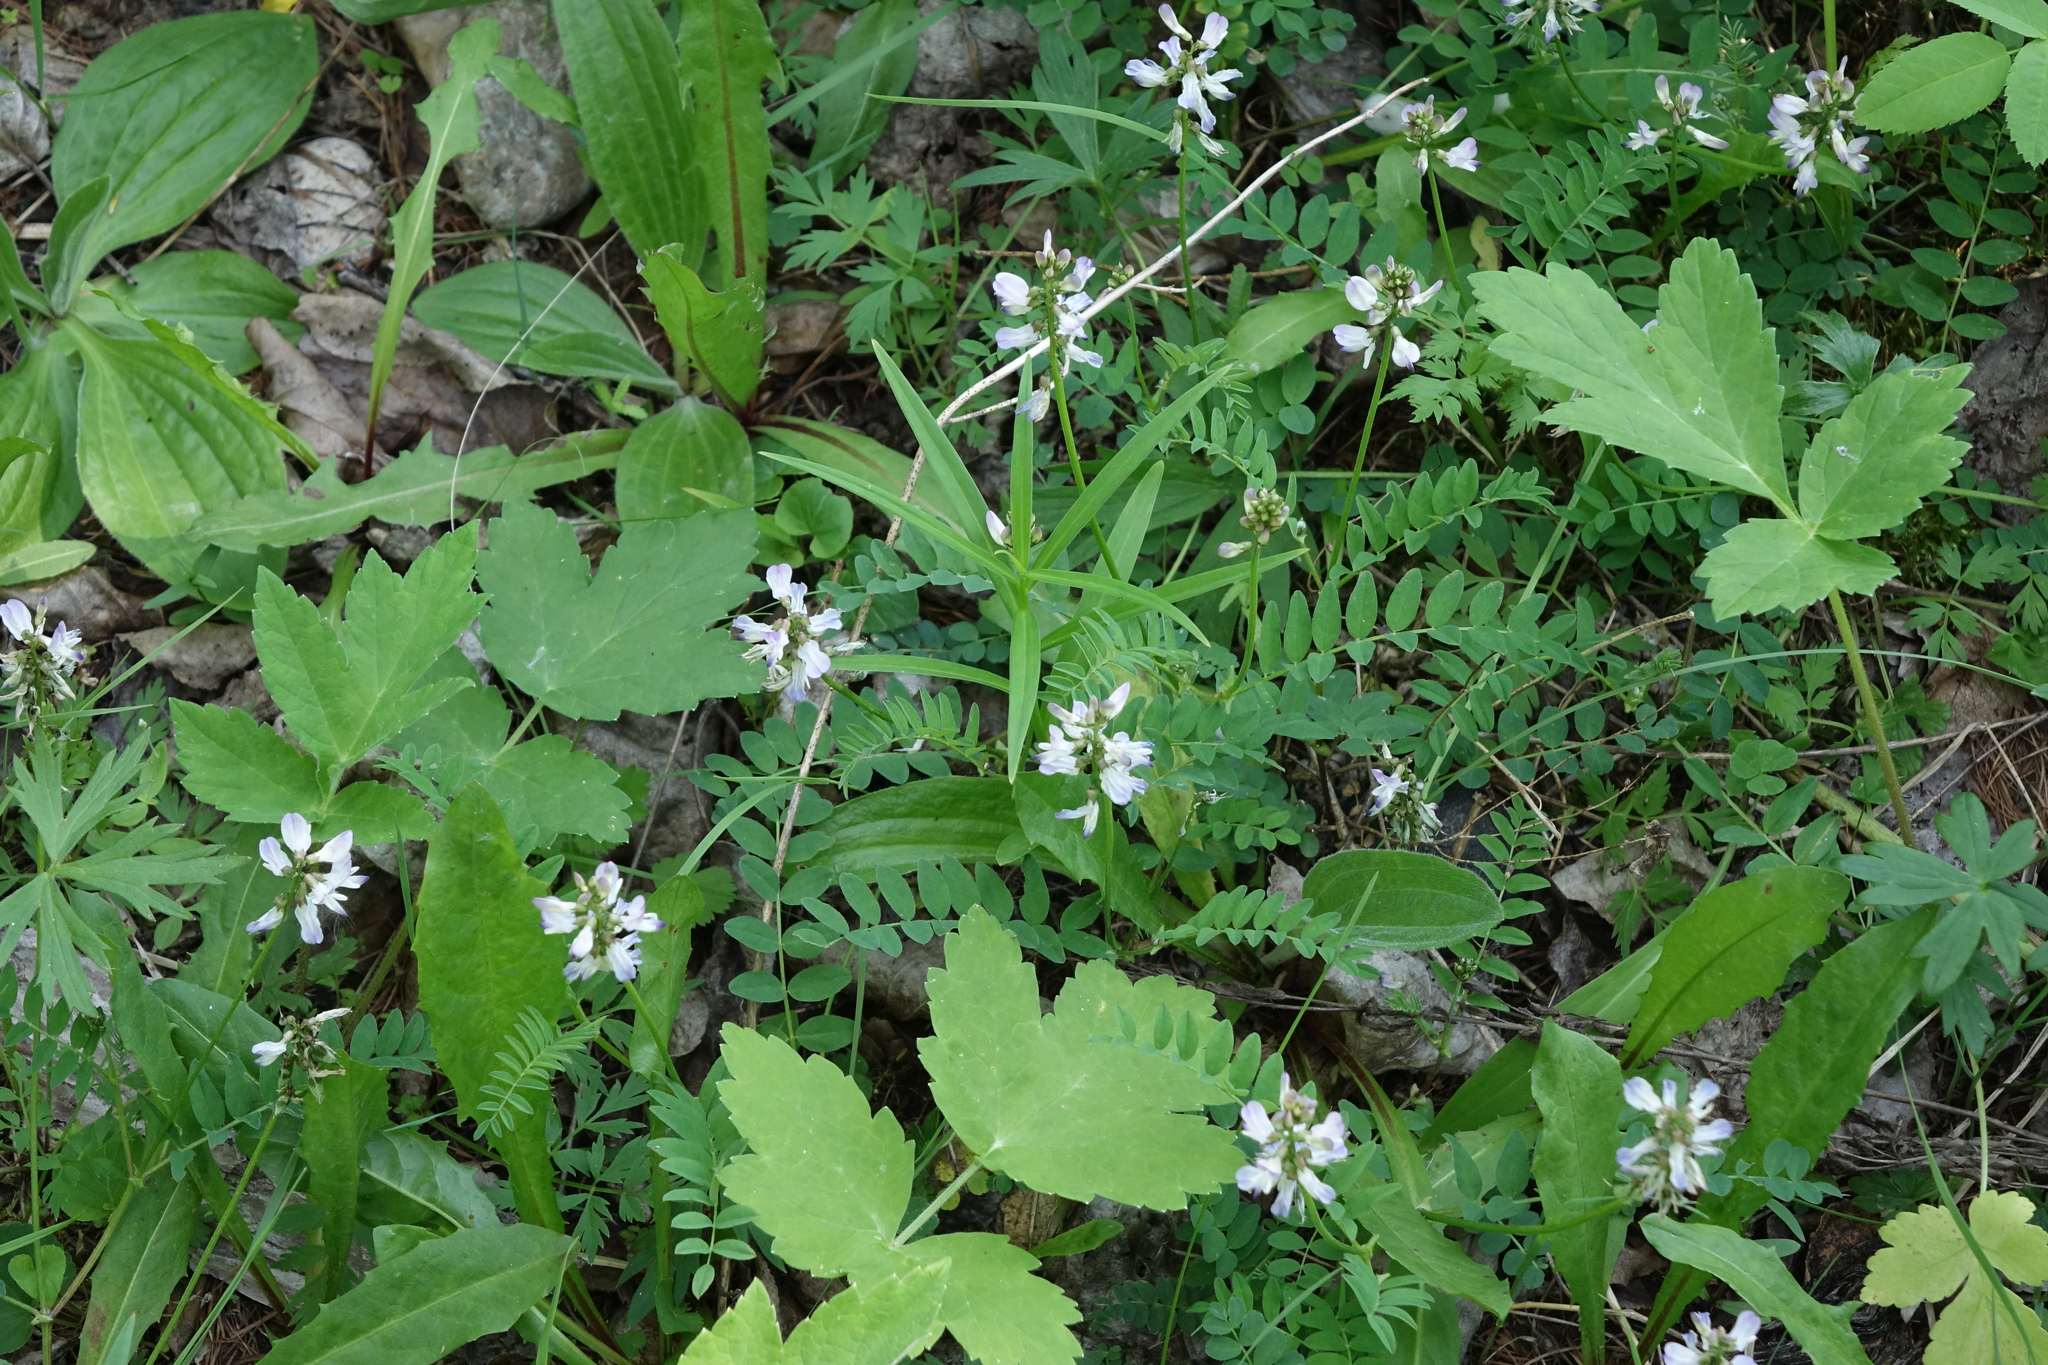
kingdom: Plantae
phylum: Tracheophyta
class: Magnoliopsida
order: Fabales
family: Fabaceae
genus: Astragalus
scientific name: Astragalus alpinus
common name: Alpine milk-vetch
